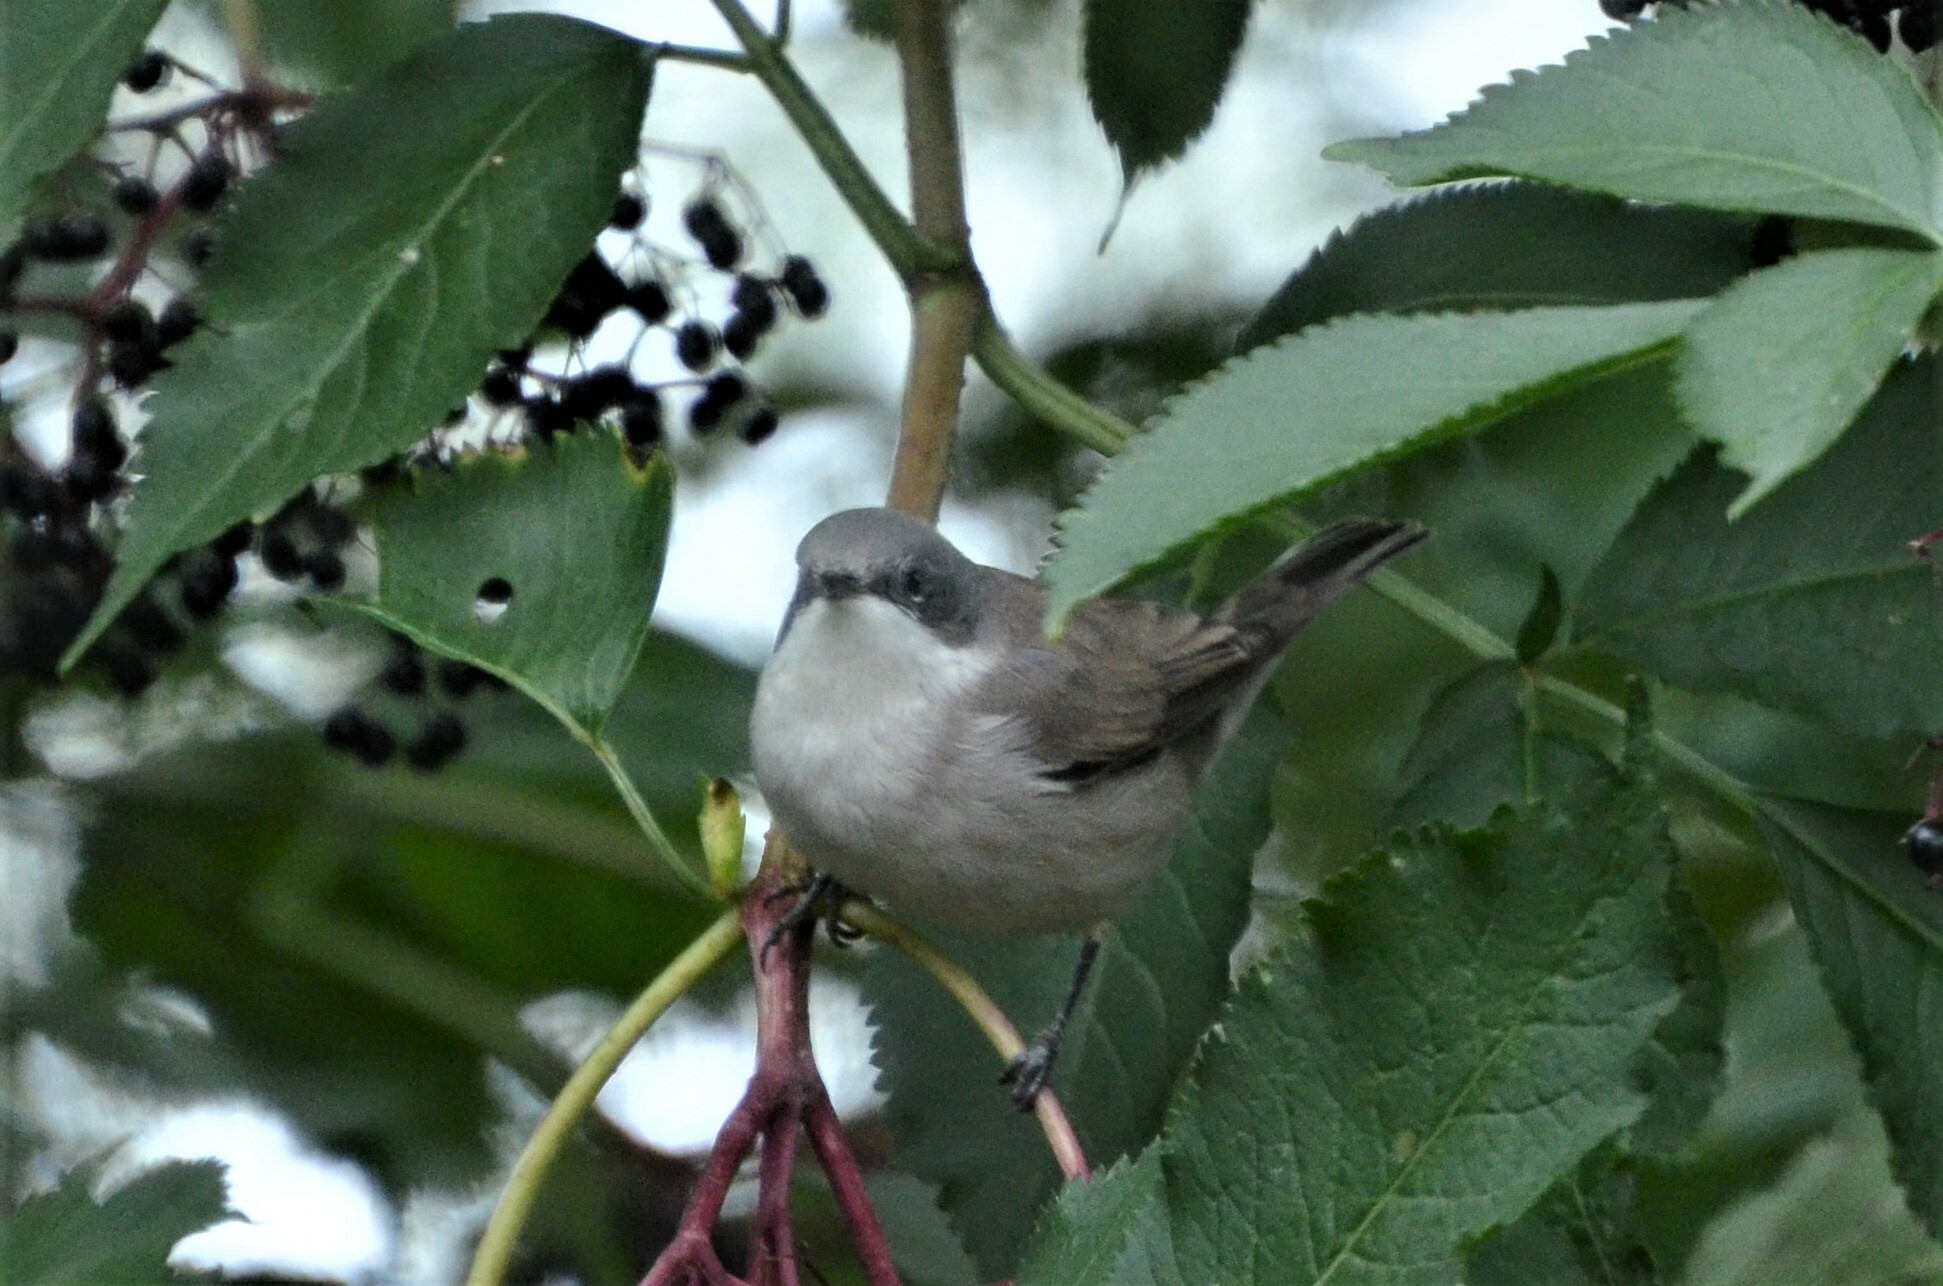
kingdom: Animalia
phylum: Chordata
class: Aves
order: Passeriformes
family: Sylviidae
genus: Sylvia
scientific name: Sylvia curruca
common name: Lesser whitethroat
